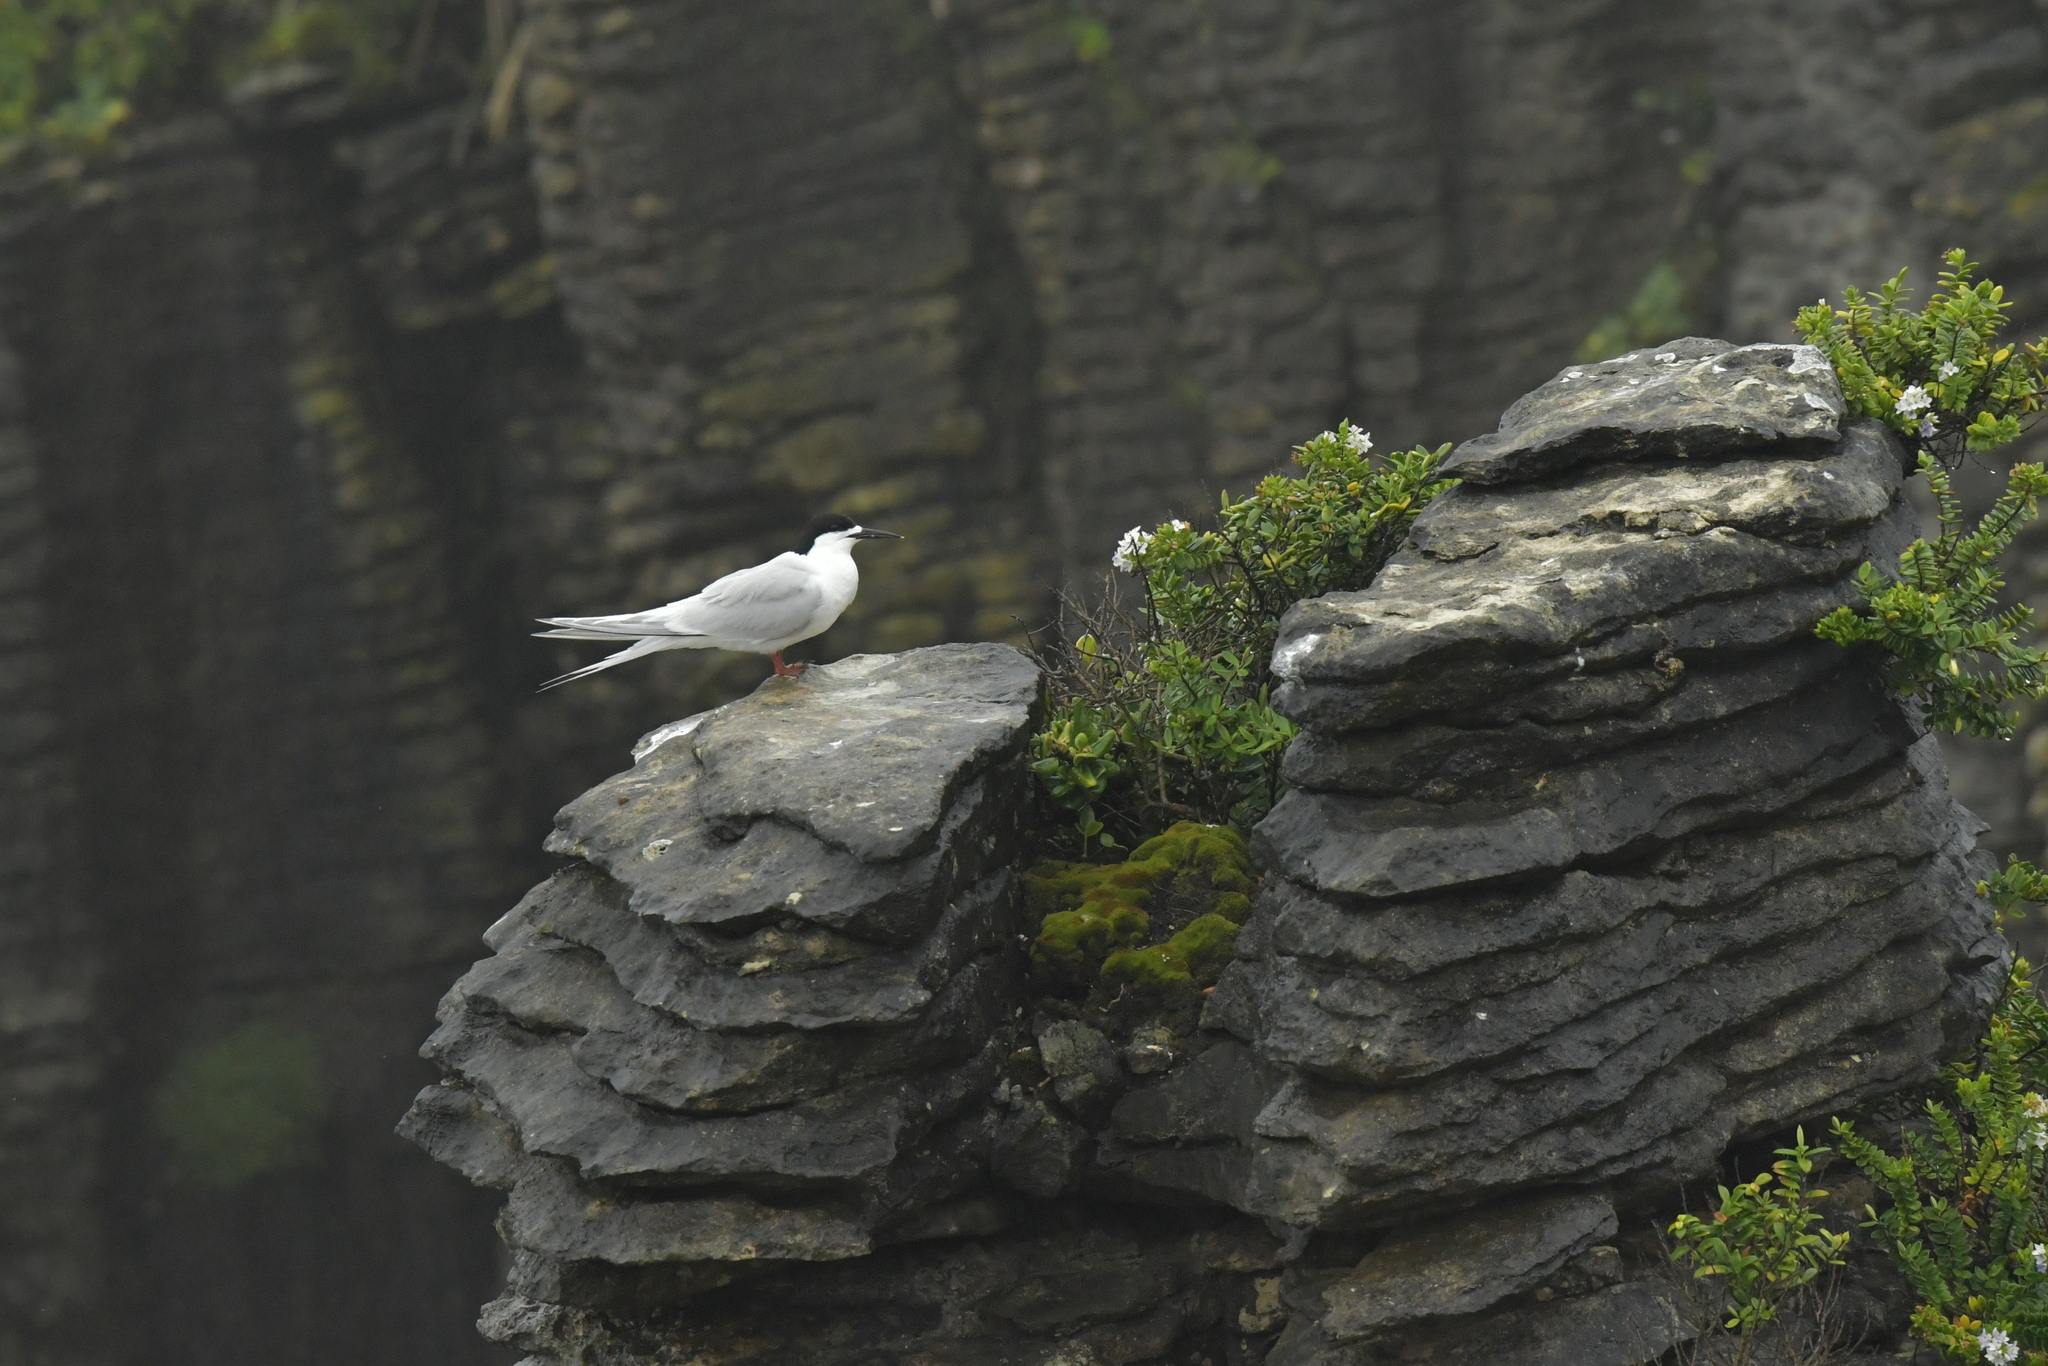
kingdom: Animalia
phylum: Chordata
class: Aves
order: Charadriiformes
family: Laridae
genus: Sterna
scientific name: Sterna striata
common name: White-fronted tern
